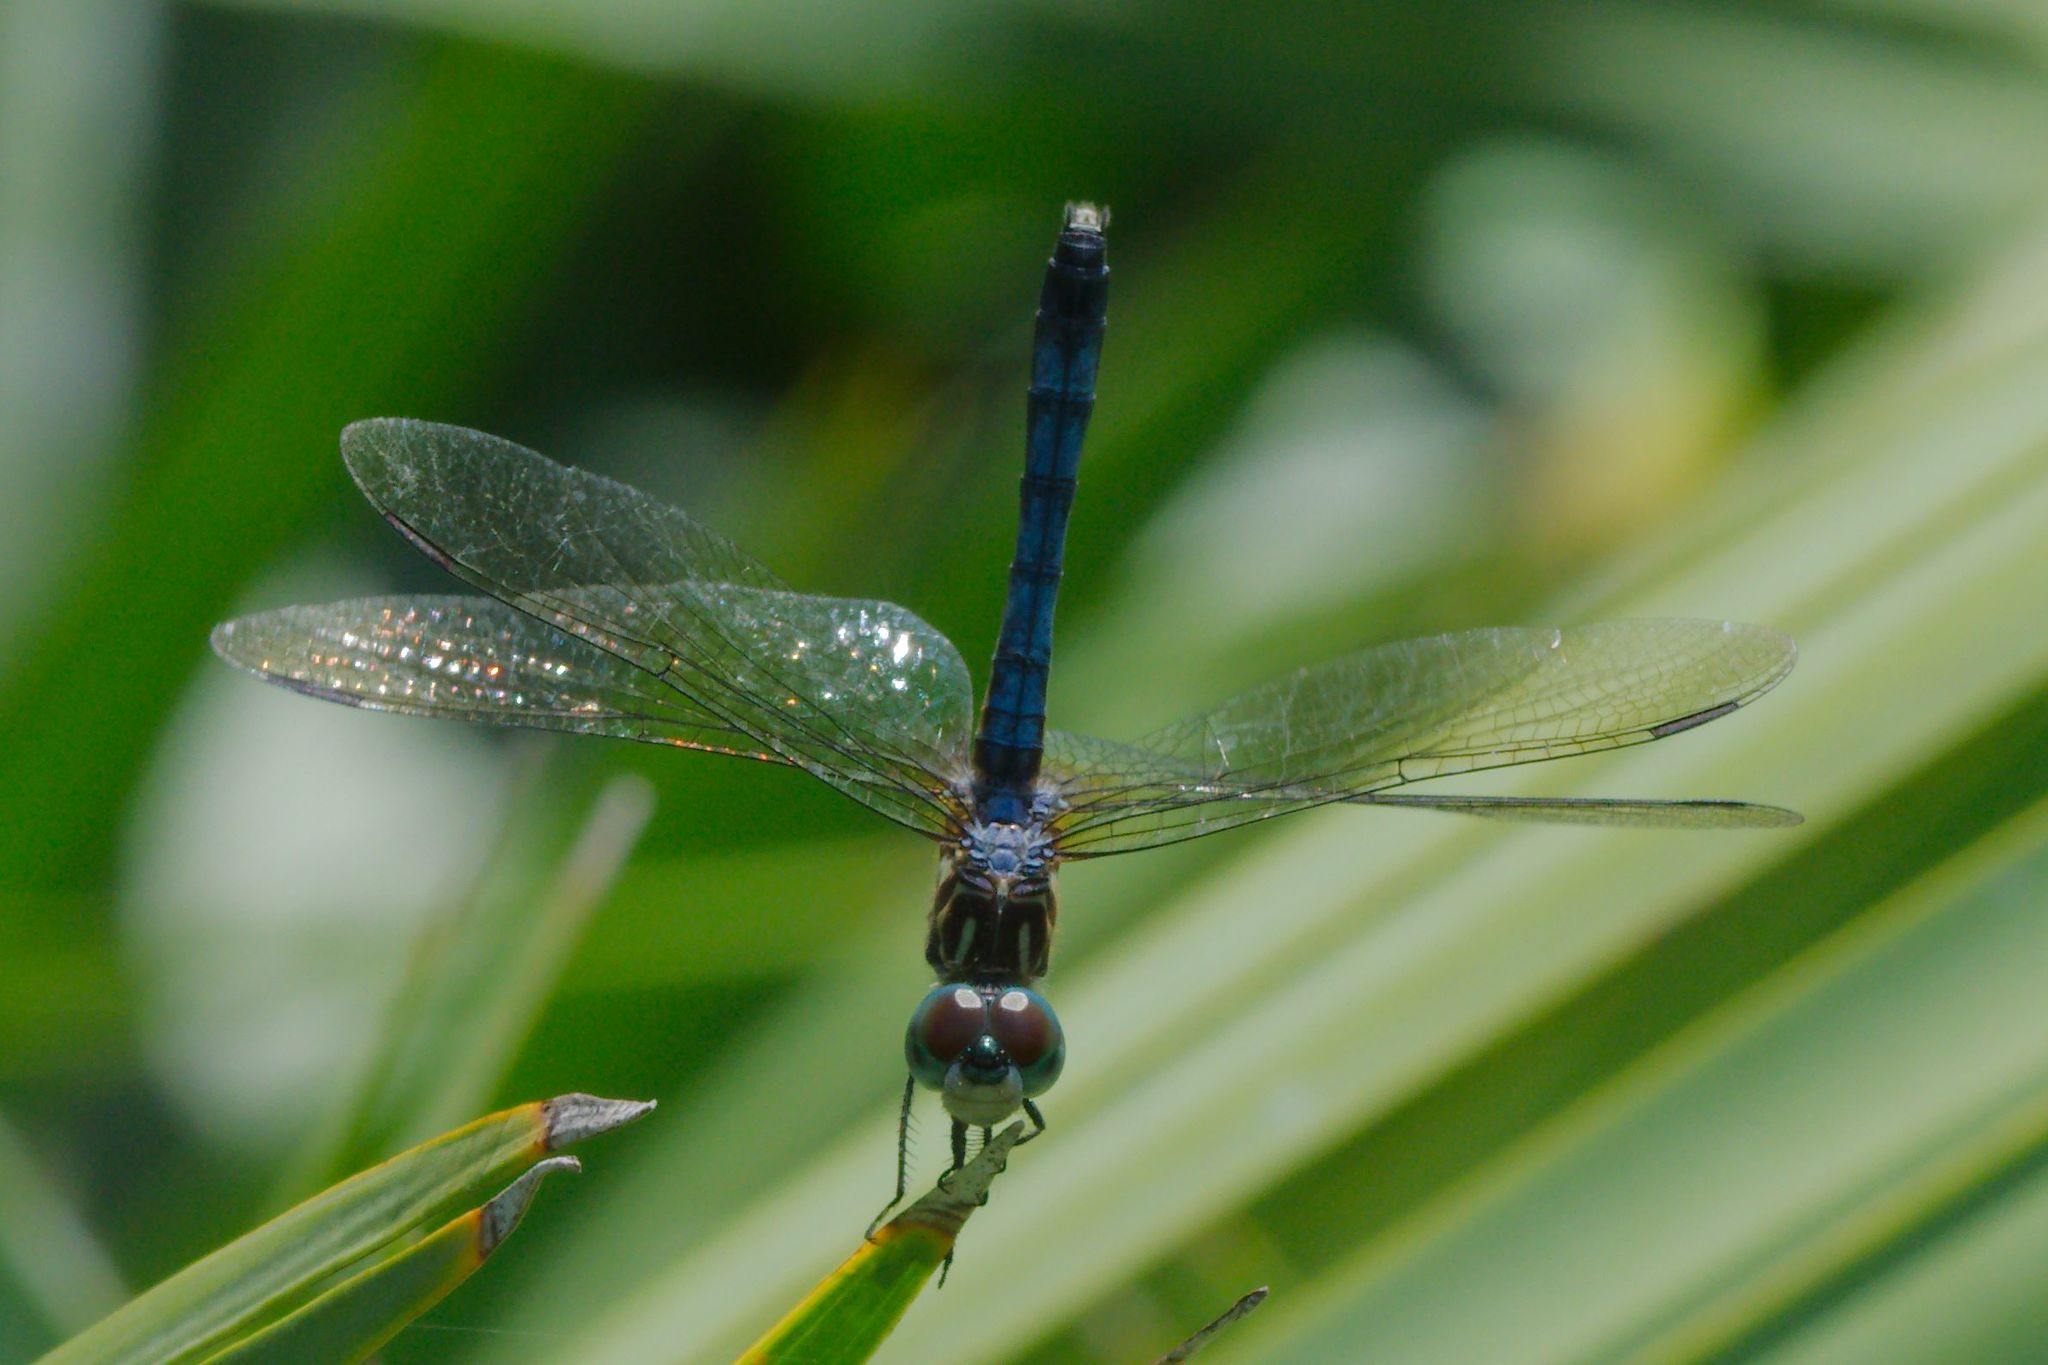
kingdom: Animalia
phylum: Arthropoda
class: Insecta
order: Odonata
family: Libellulidae
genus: Pachydiplax
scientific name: Pachydiplax longipennis
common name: Blue dasher
